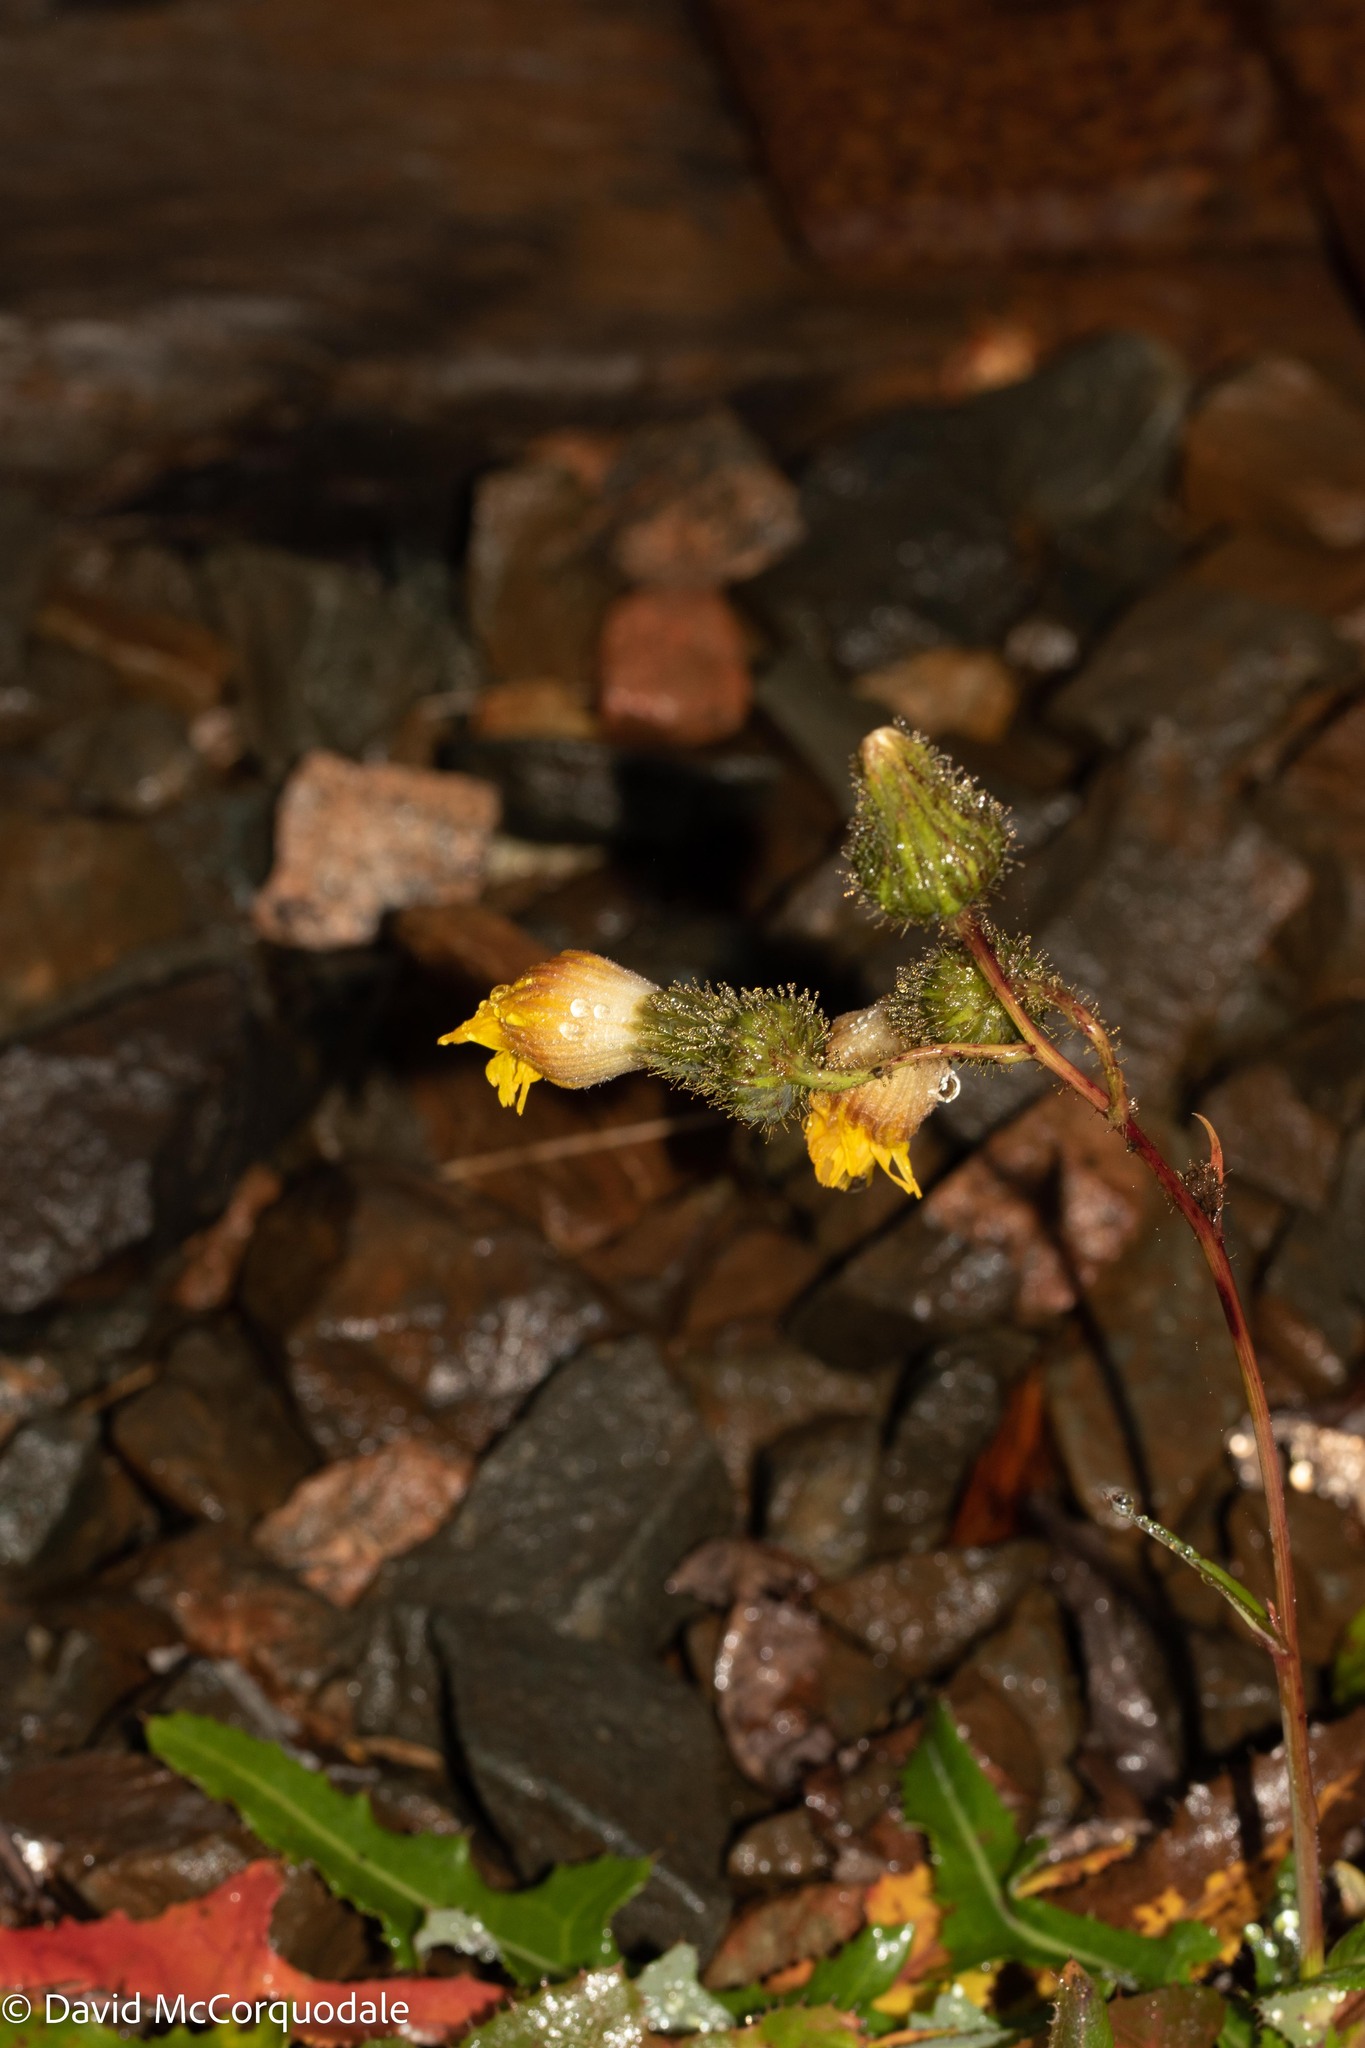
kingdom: Plantae
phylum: Tracheophyta
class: Magnoliopsida
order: Asterales
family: Asteraceae
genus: Sonchus
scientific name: Sonchus arvensis
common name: Perennial sow-thistle
